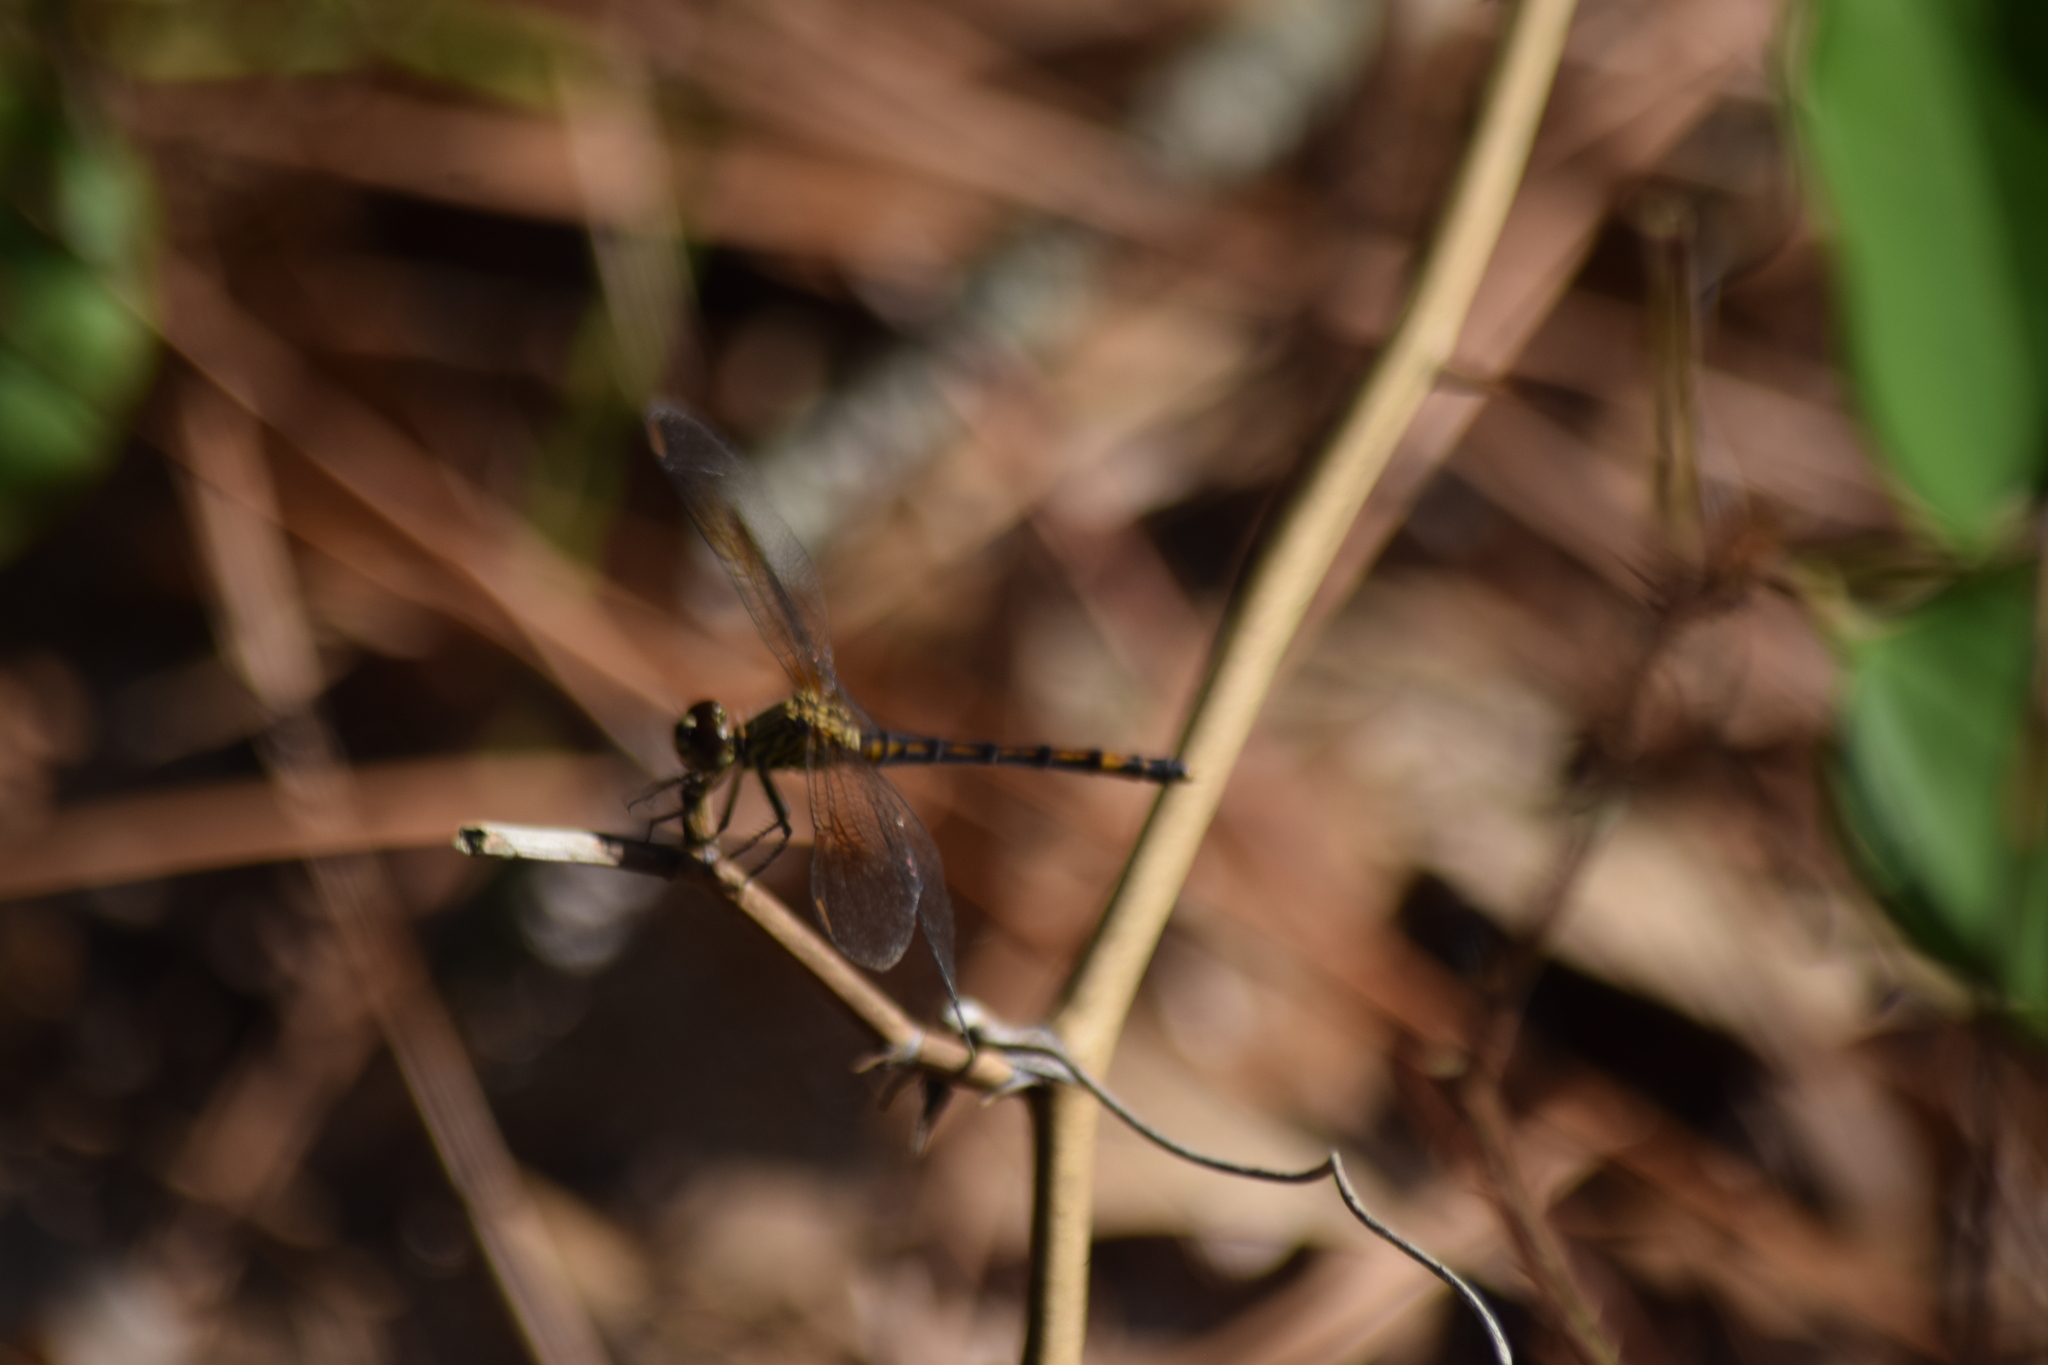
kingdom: Animalia
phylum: Arthropoda
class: Insecta
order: Odonata
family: Libellulidae
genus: Erythrodiplax
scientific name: Erythrodiplax berenice
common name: Seaside dragonlet
